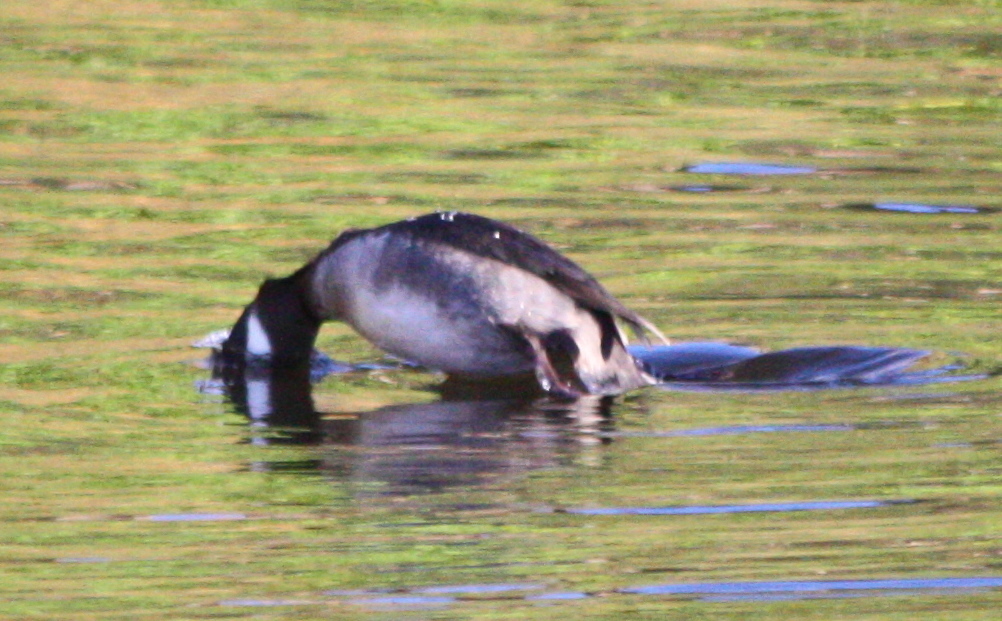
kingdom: Animalia
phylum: Chordata
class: Aves
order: Anseriformes
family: Anatidae
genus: Bucephala
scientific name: Bucephala albeola
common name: Bufflehead
